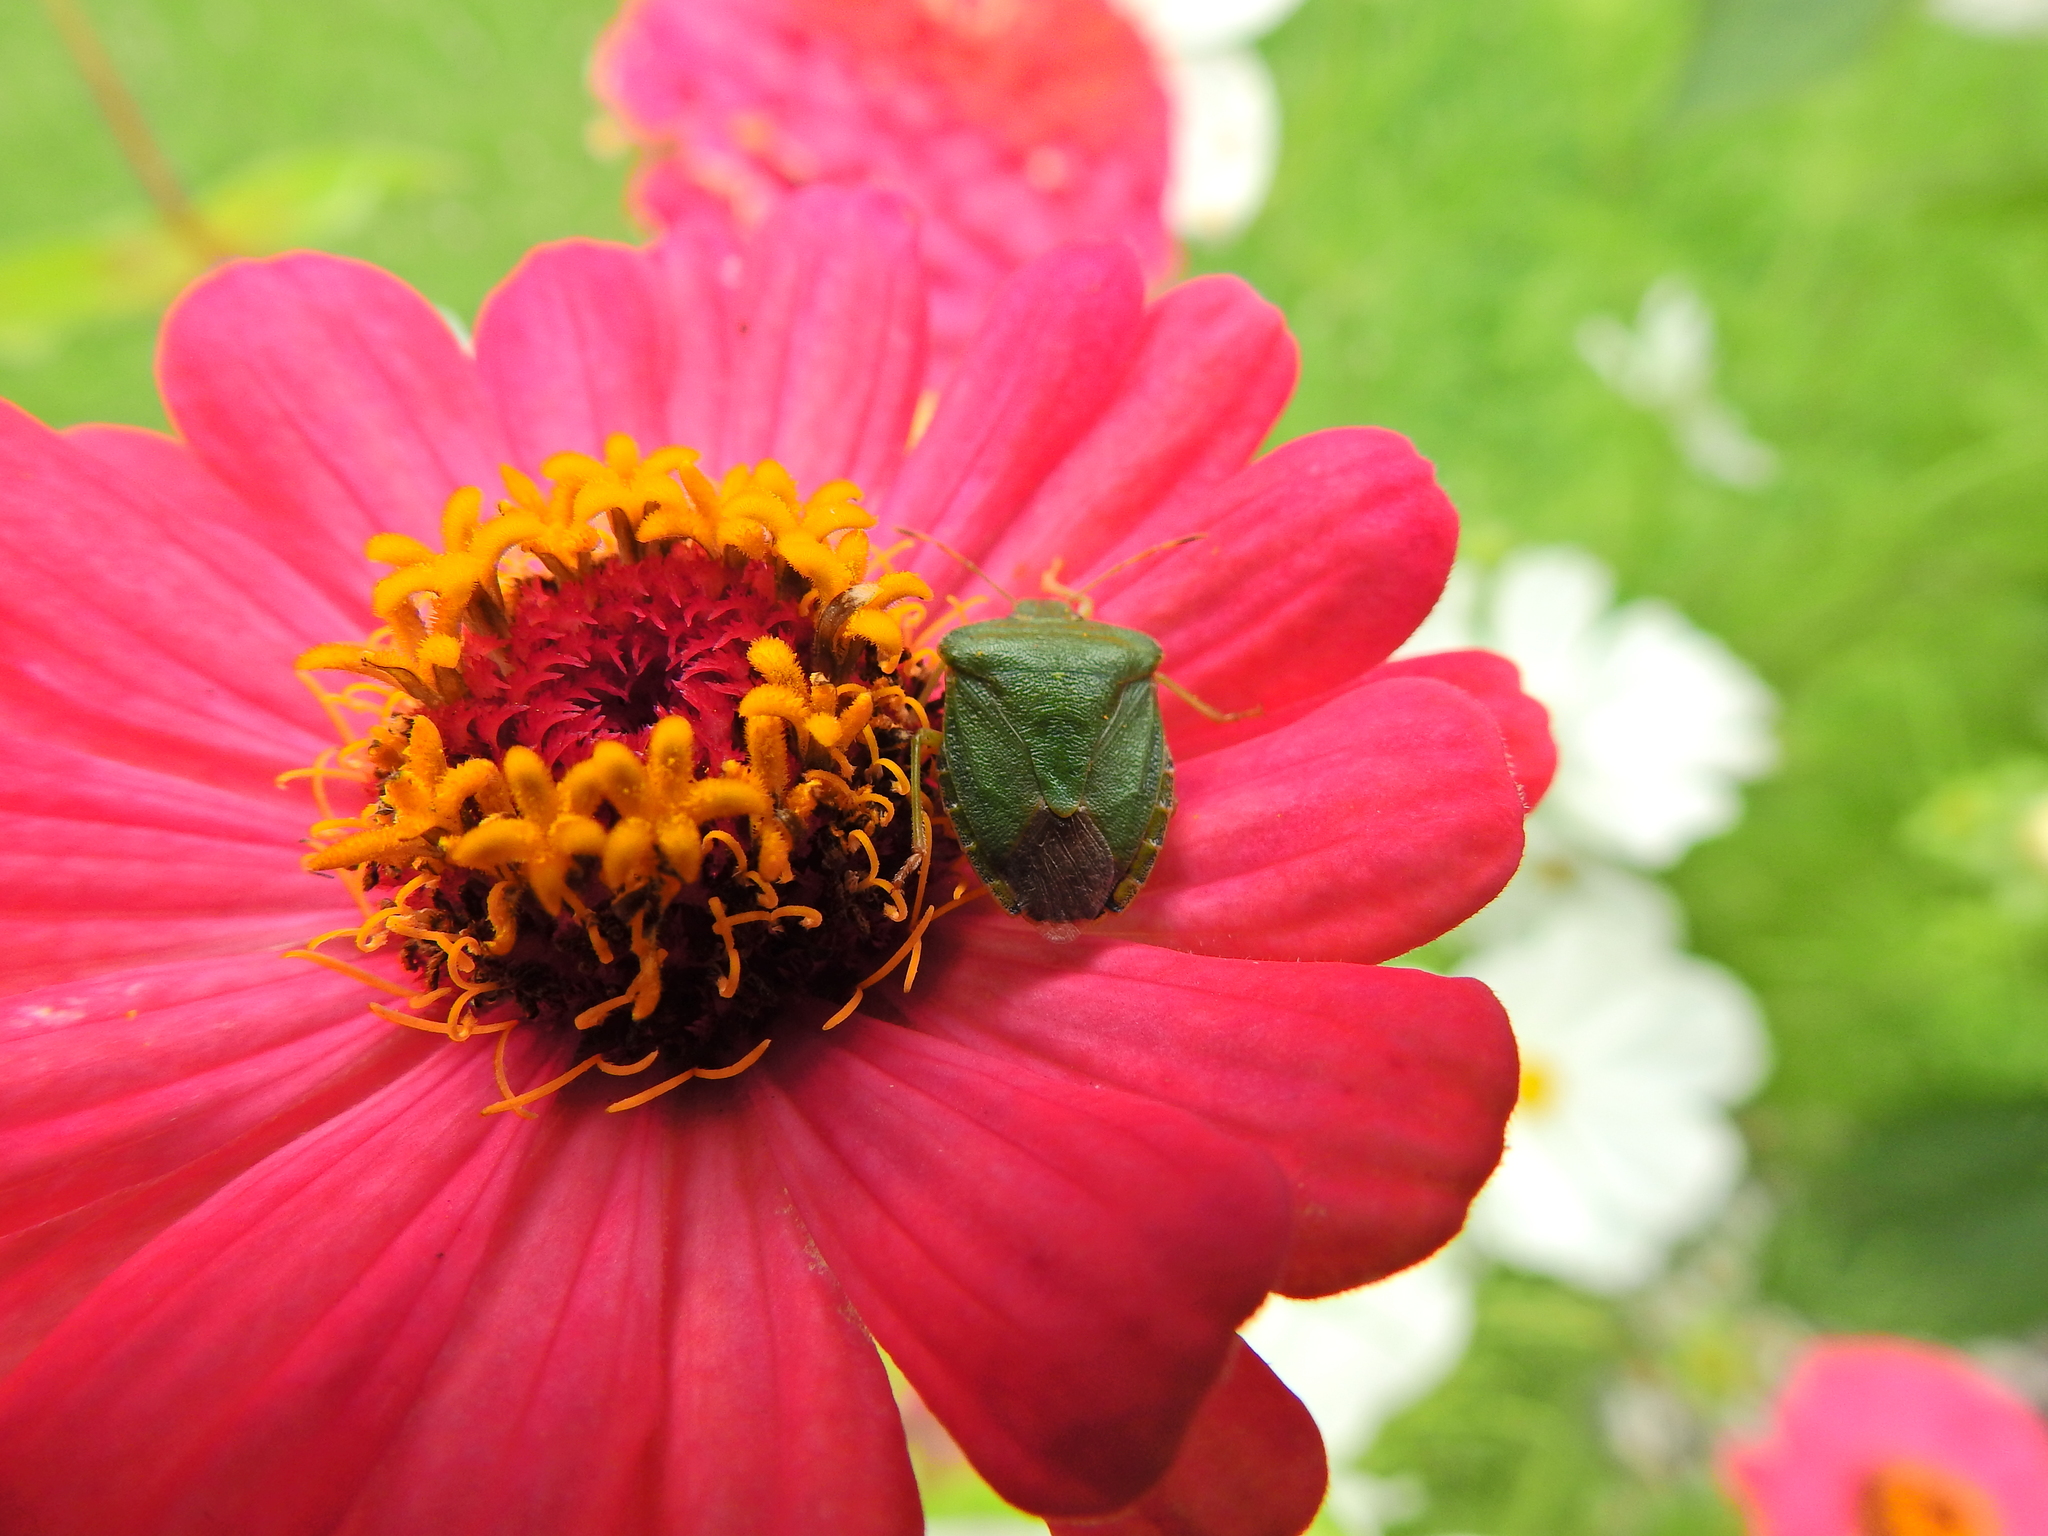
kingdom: Animalia
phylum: Arthropoda
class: Insecta
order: Hemiptera
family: Pentatomidae
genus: Palomena
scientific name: Palomena prasina
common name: Green shieldbug
